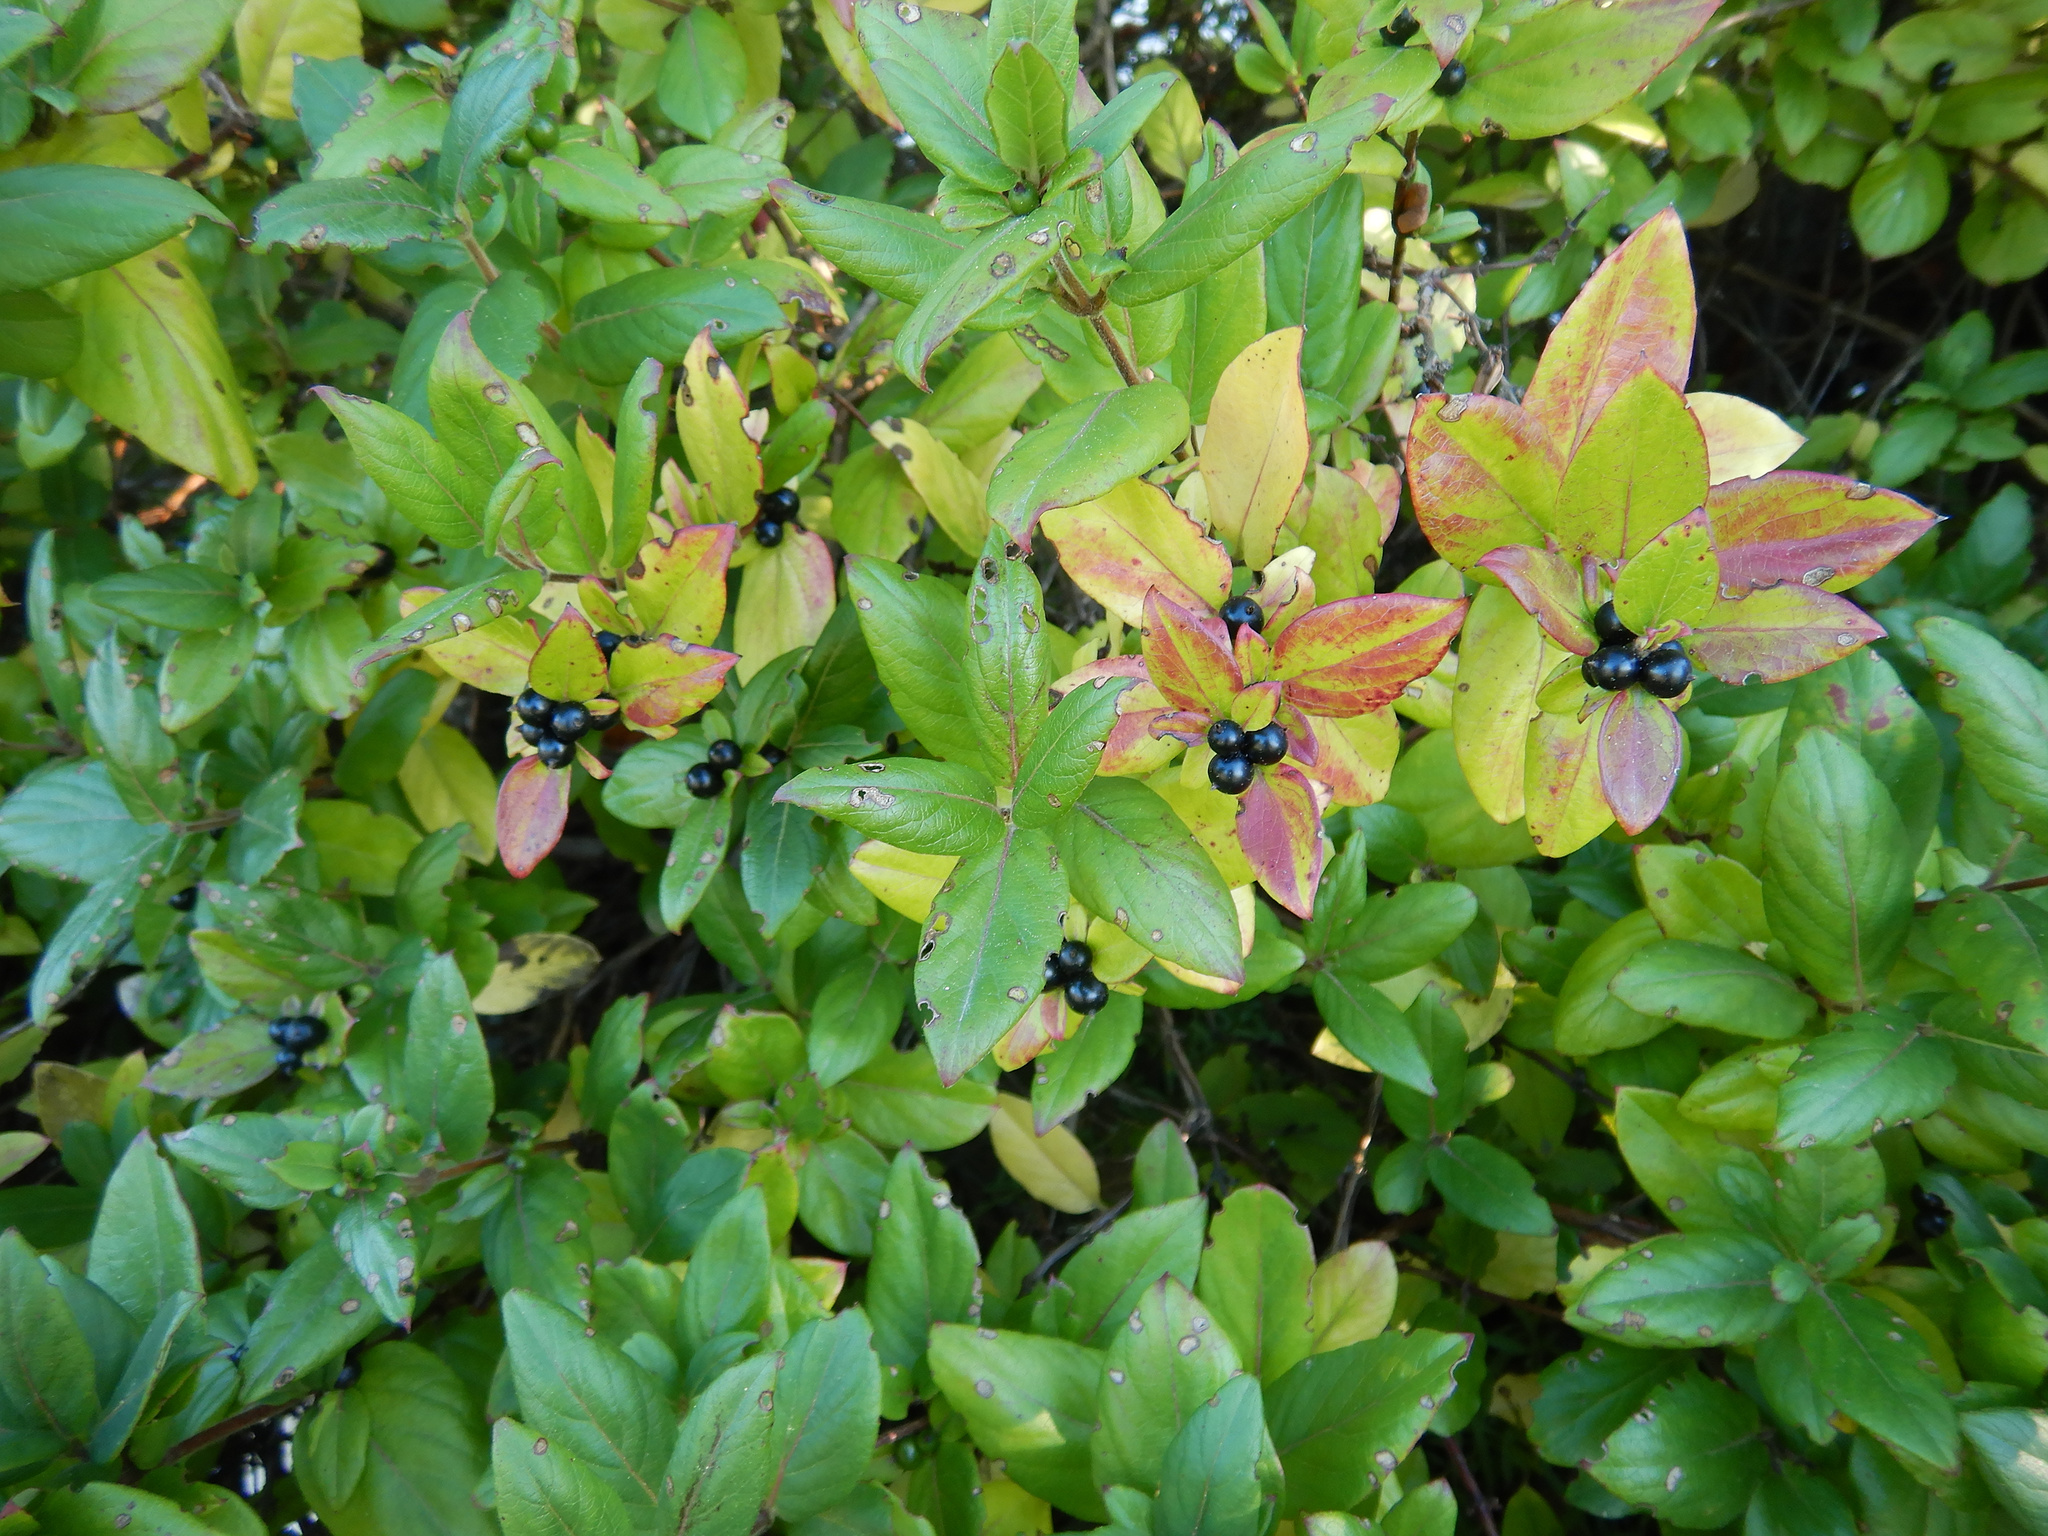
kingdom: Plantae
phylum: Tracheophyta
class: Magnoliopsida
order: Dipsacales
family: Caprifoliaceae
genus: Lonicera
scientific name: Lonicera japonica
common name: Japanese honeysuckle
